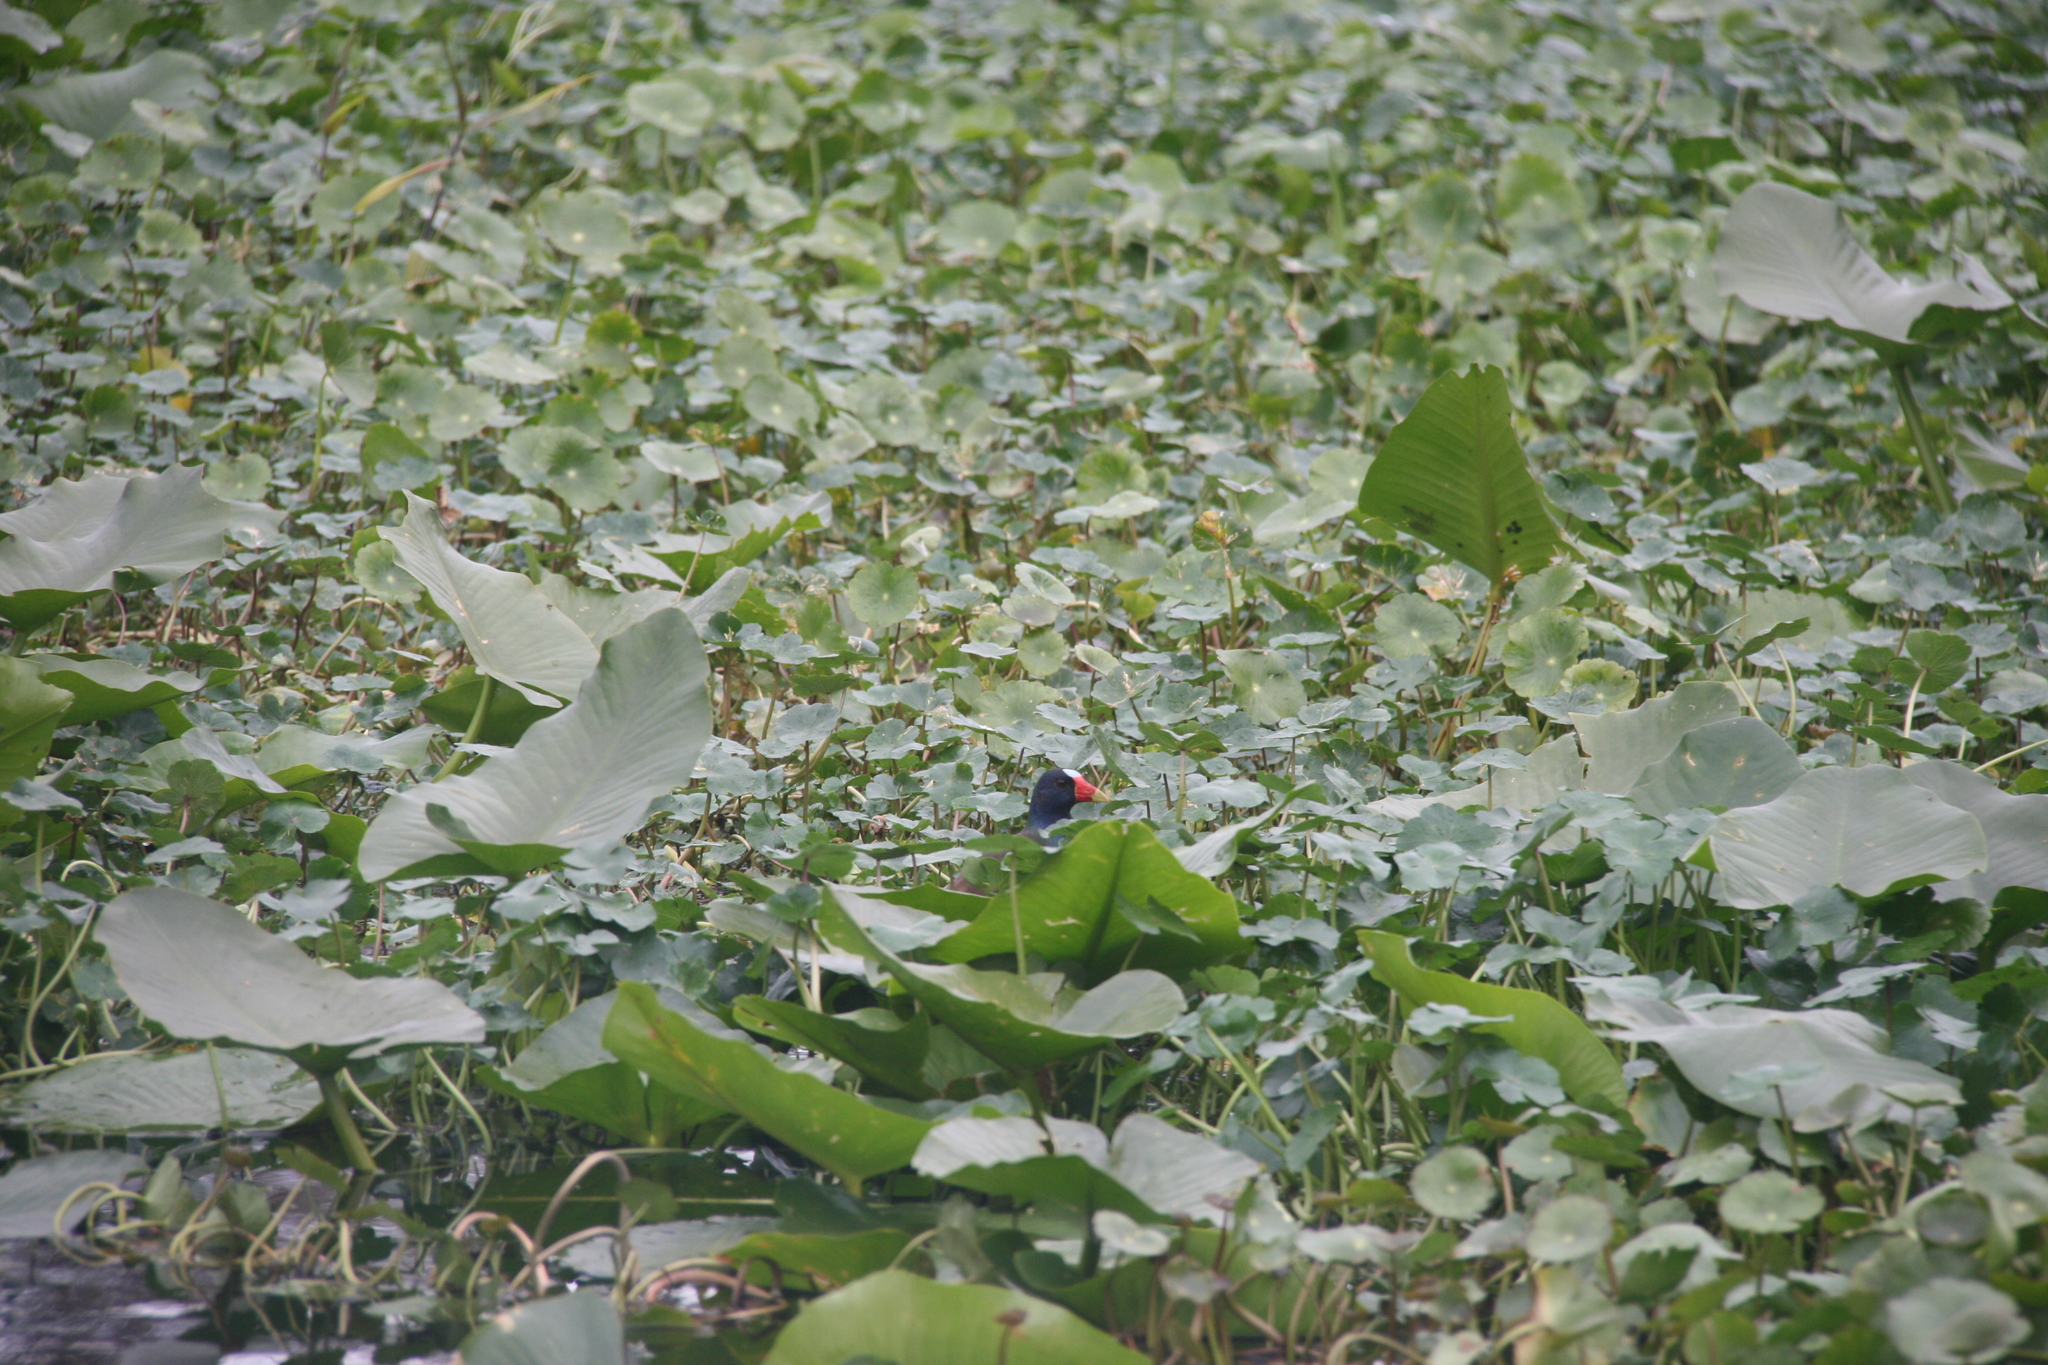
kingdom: Animalia
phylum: Chordata
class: Aves
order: Gruiformes
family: Rallidae
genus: Porphyrio
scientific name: Porphyrio martinica
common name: Purple gallinule
